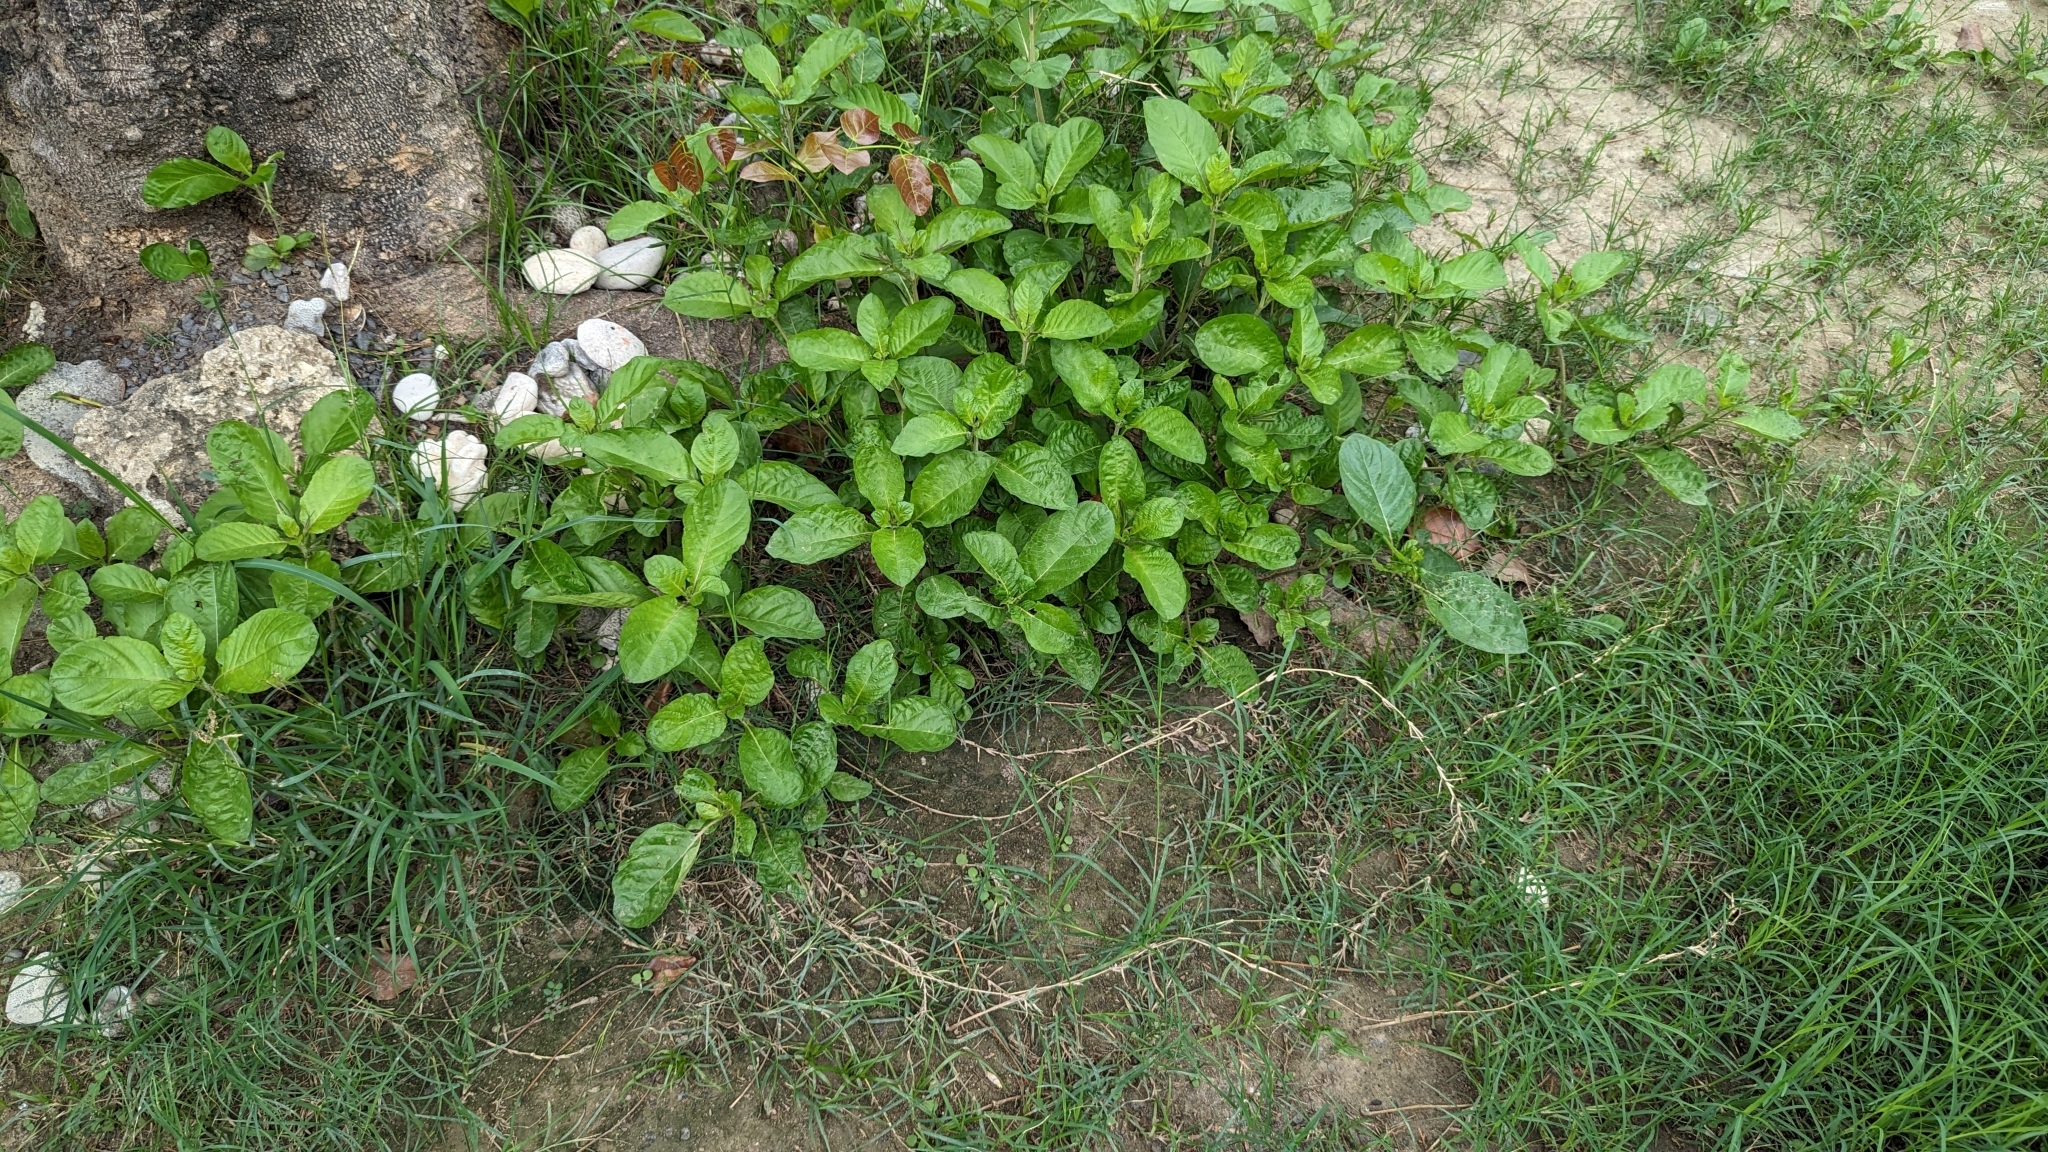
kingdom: Plantae
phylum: Tracheophyta
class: Magnoliopsida
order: Lamiales
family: Acanthaceae
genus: Ruellia
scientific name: Ruellia tuberosa
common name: Devil's bit
